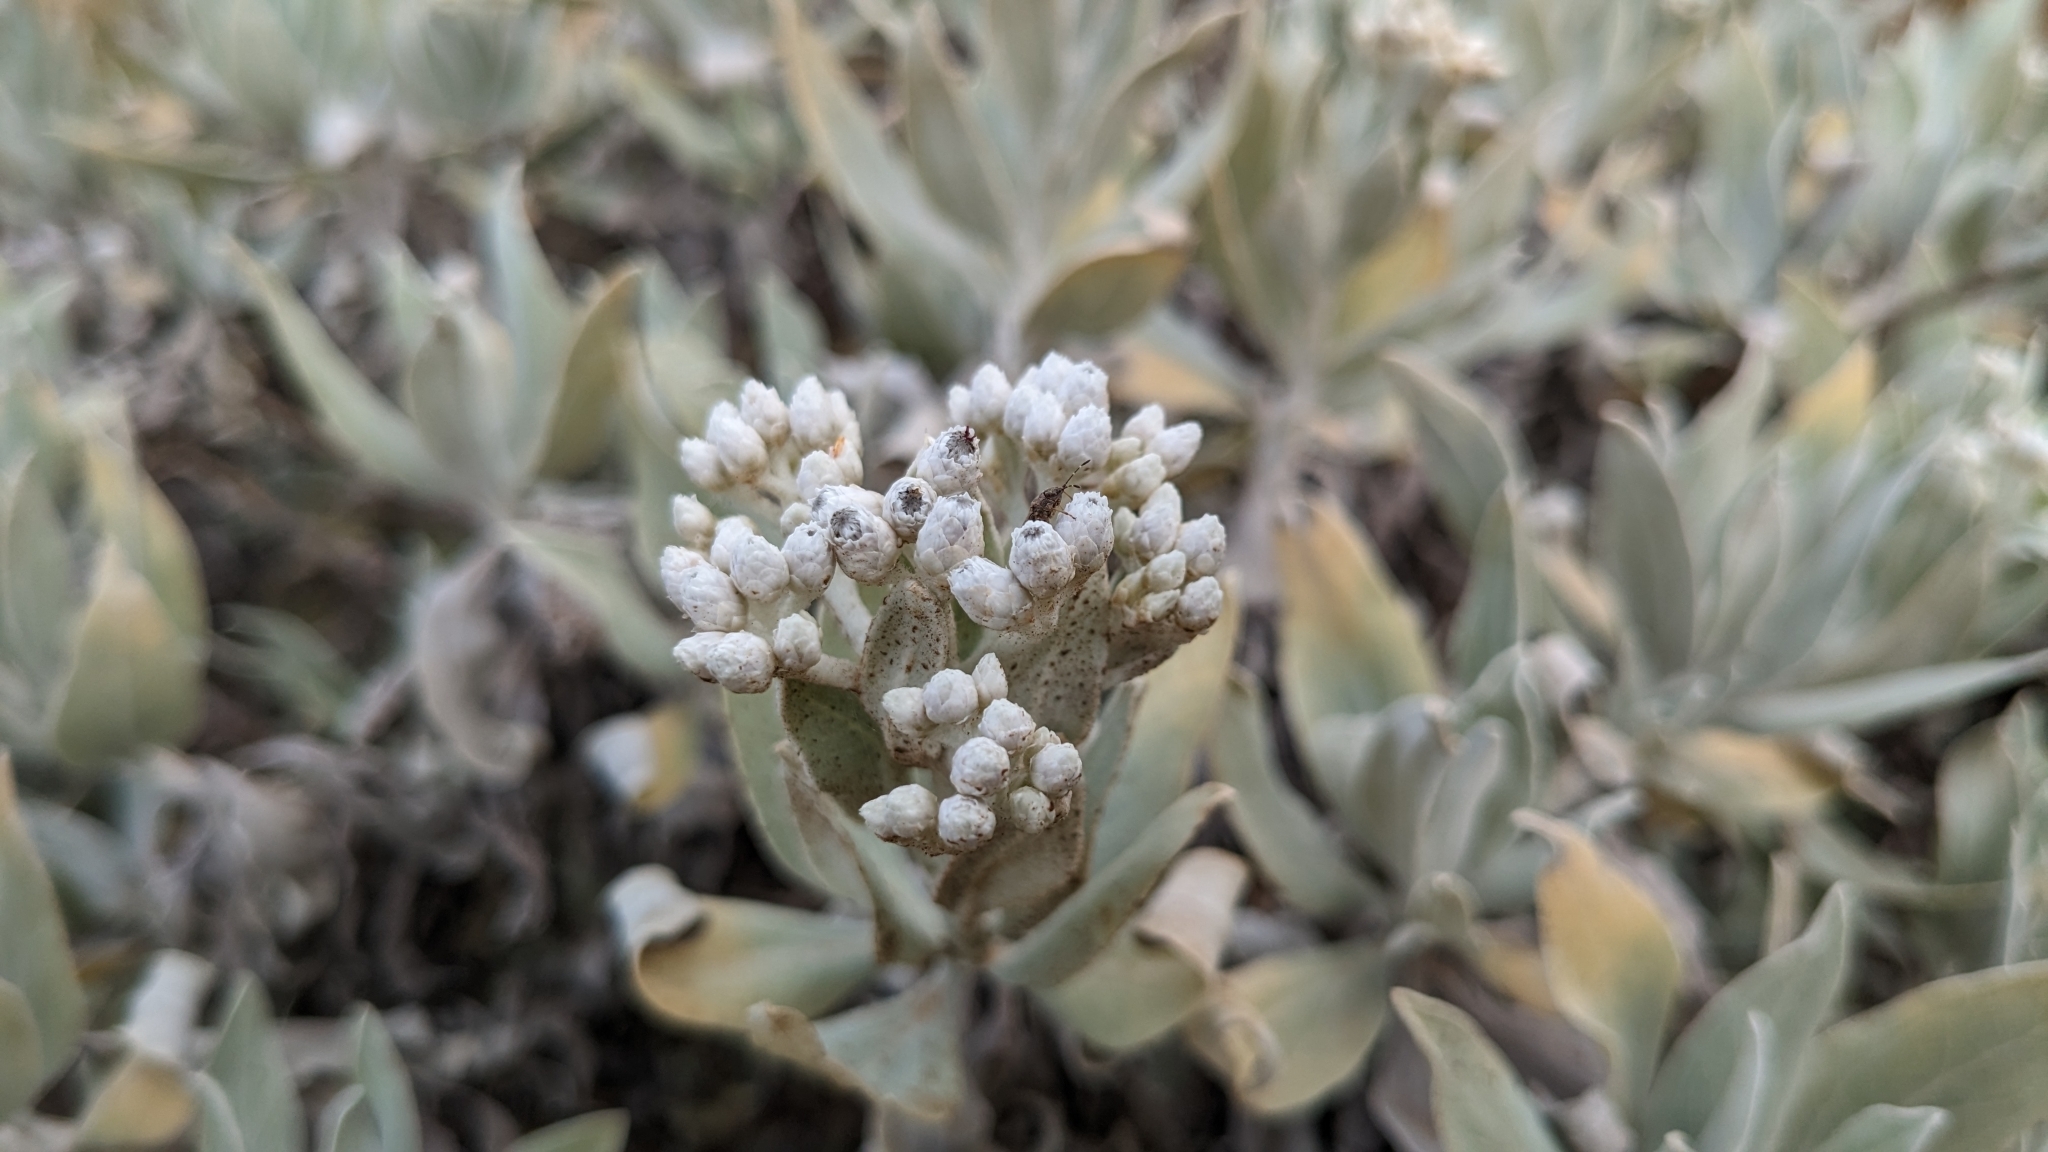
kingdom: Plantae
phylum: Tracheophyta
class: Magnoliopsida
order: Asterales
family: Asteraceae
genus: Helichrysum
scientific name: Helichrysum melaleucum
